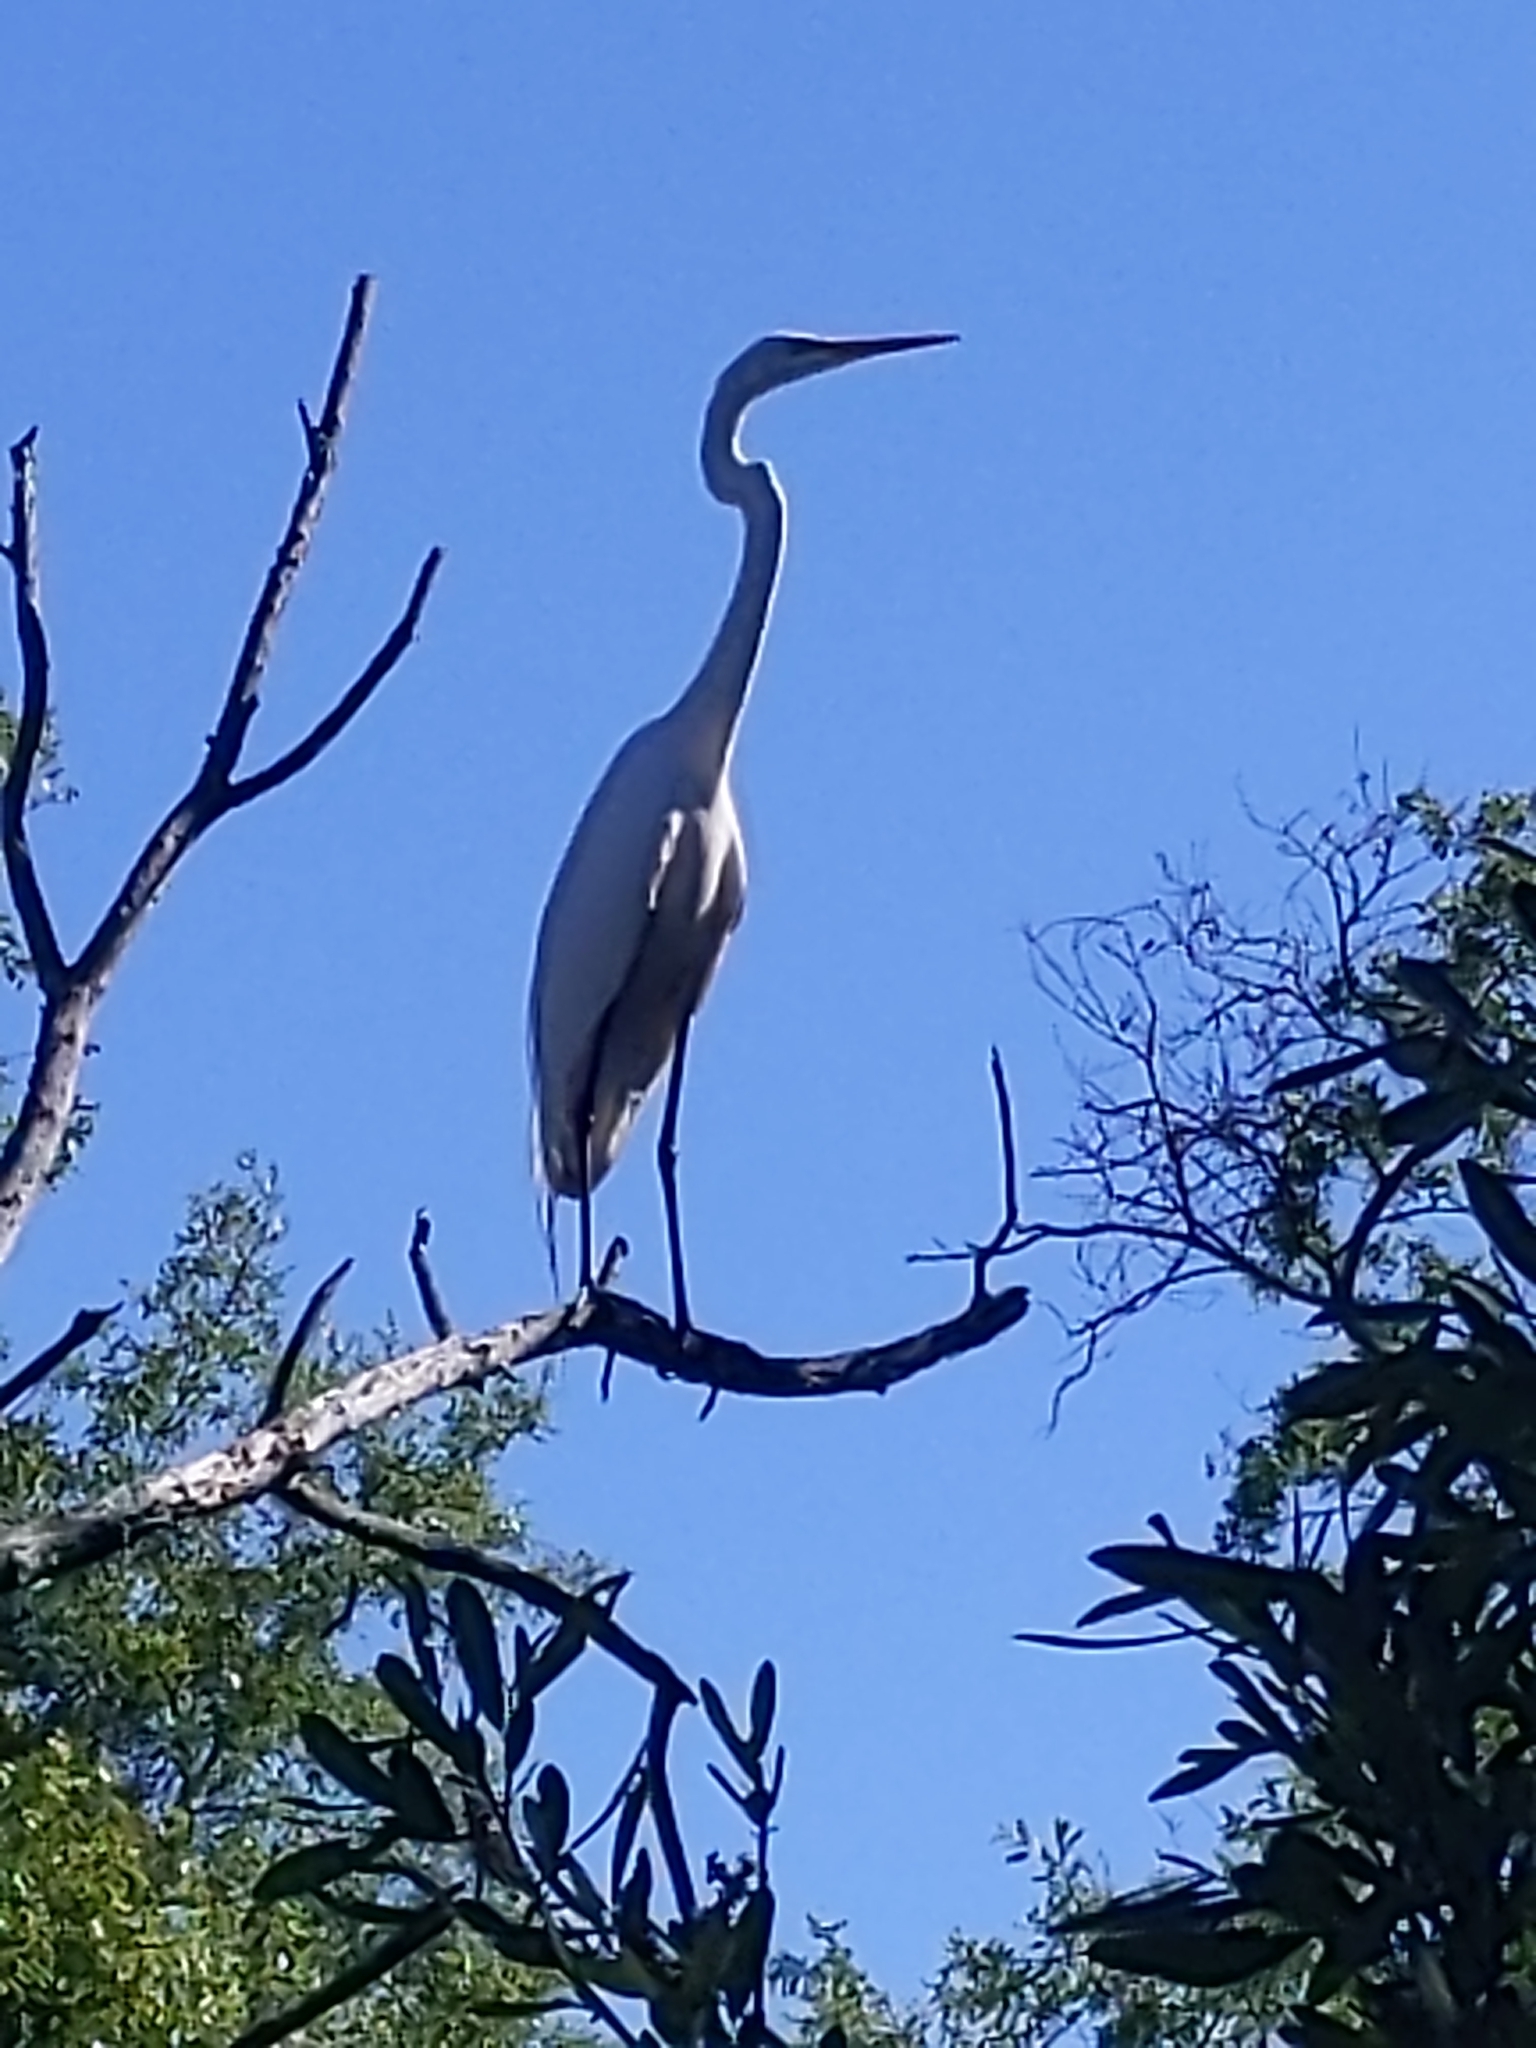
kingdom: Animalia
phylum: Chordata
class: Aves
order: Pelecaniformes
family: Ardeidae
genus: Ardea
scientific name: Ardea alba
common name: Great egret
